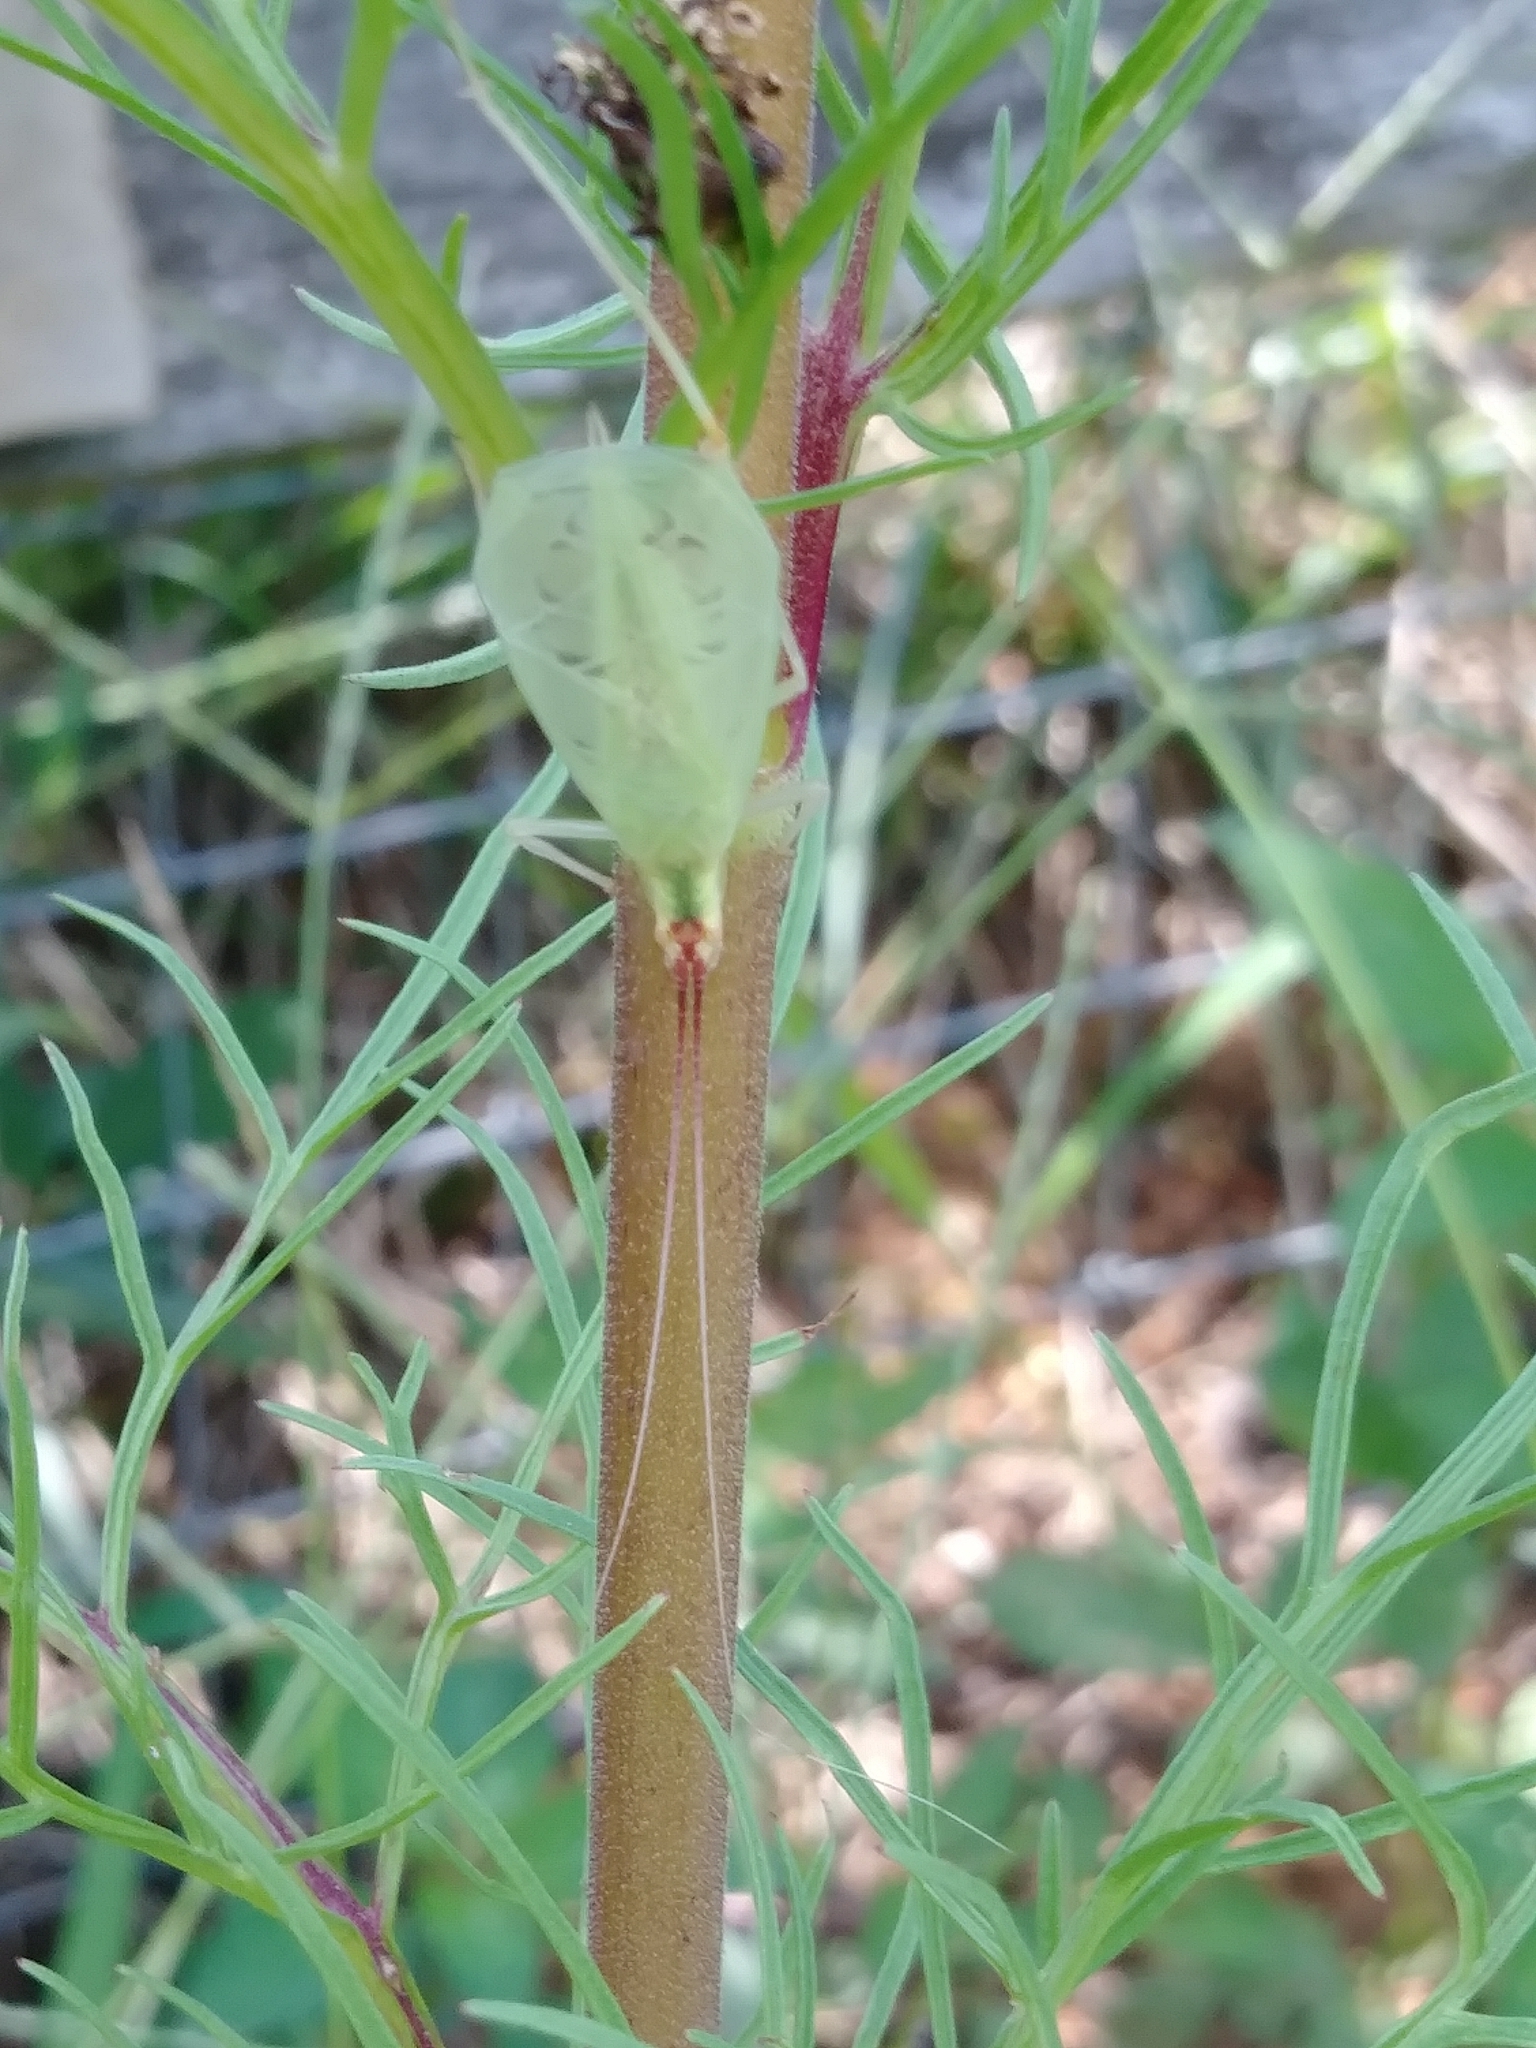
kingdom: Animalia
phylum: Arthropoda
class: Insecta
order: Orthoptera
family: Gryllidae
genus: Oecanthus
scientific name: Oecanthus latipennis
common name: Broad-winged tree cricket
